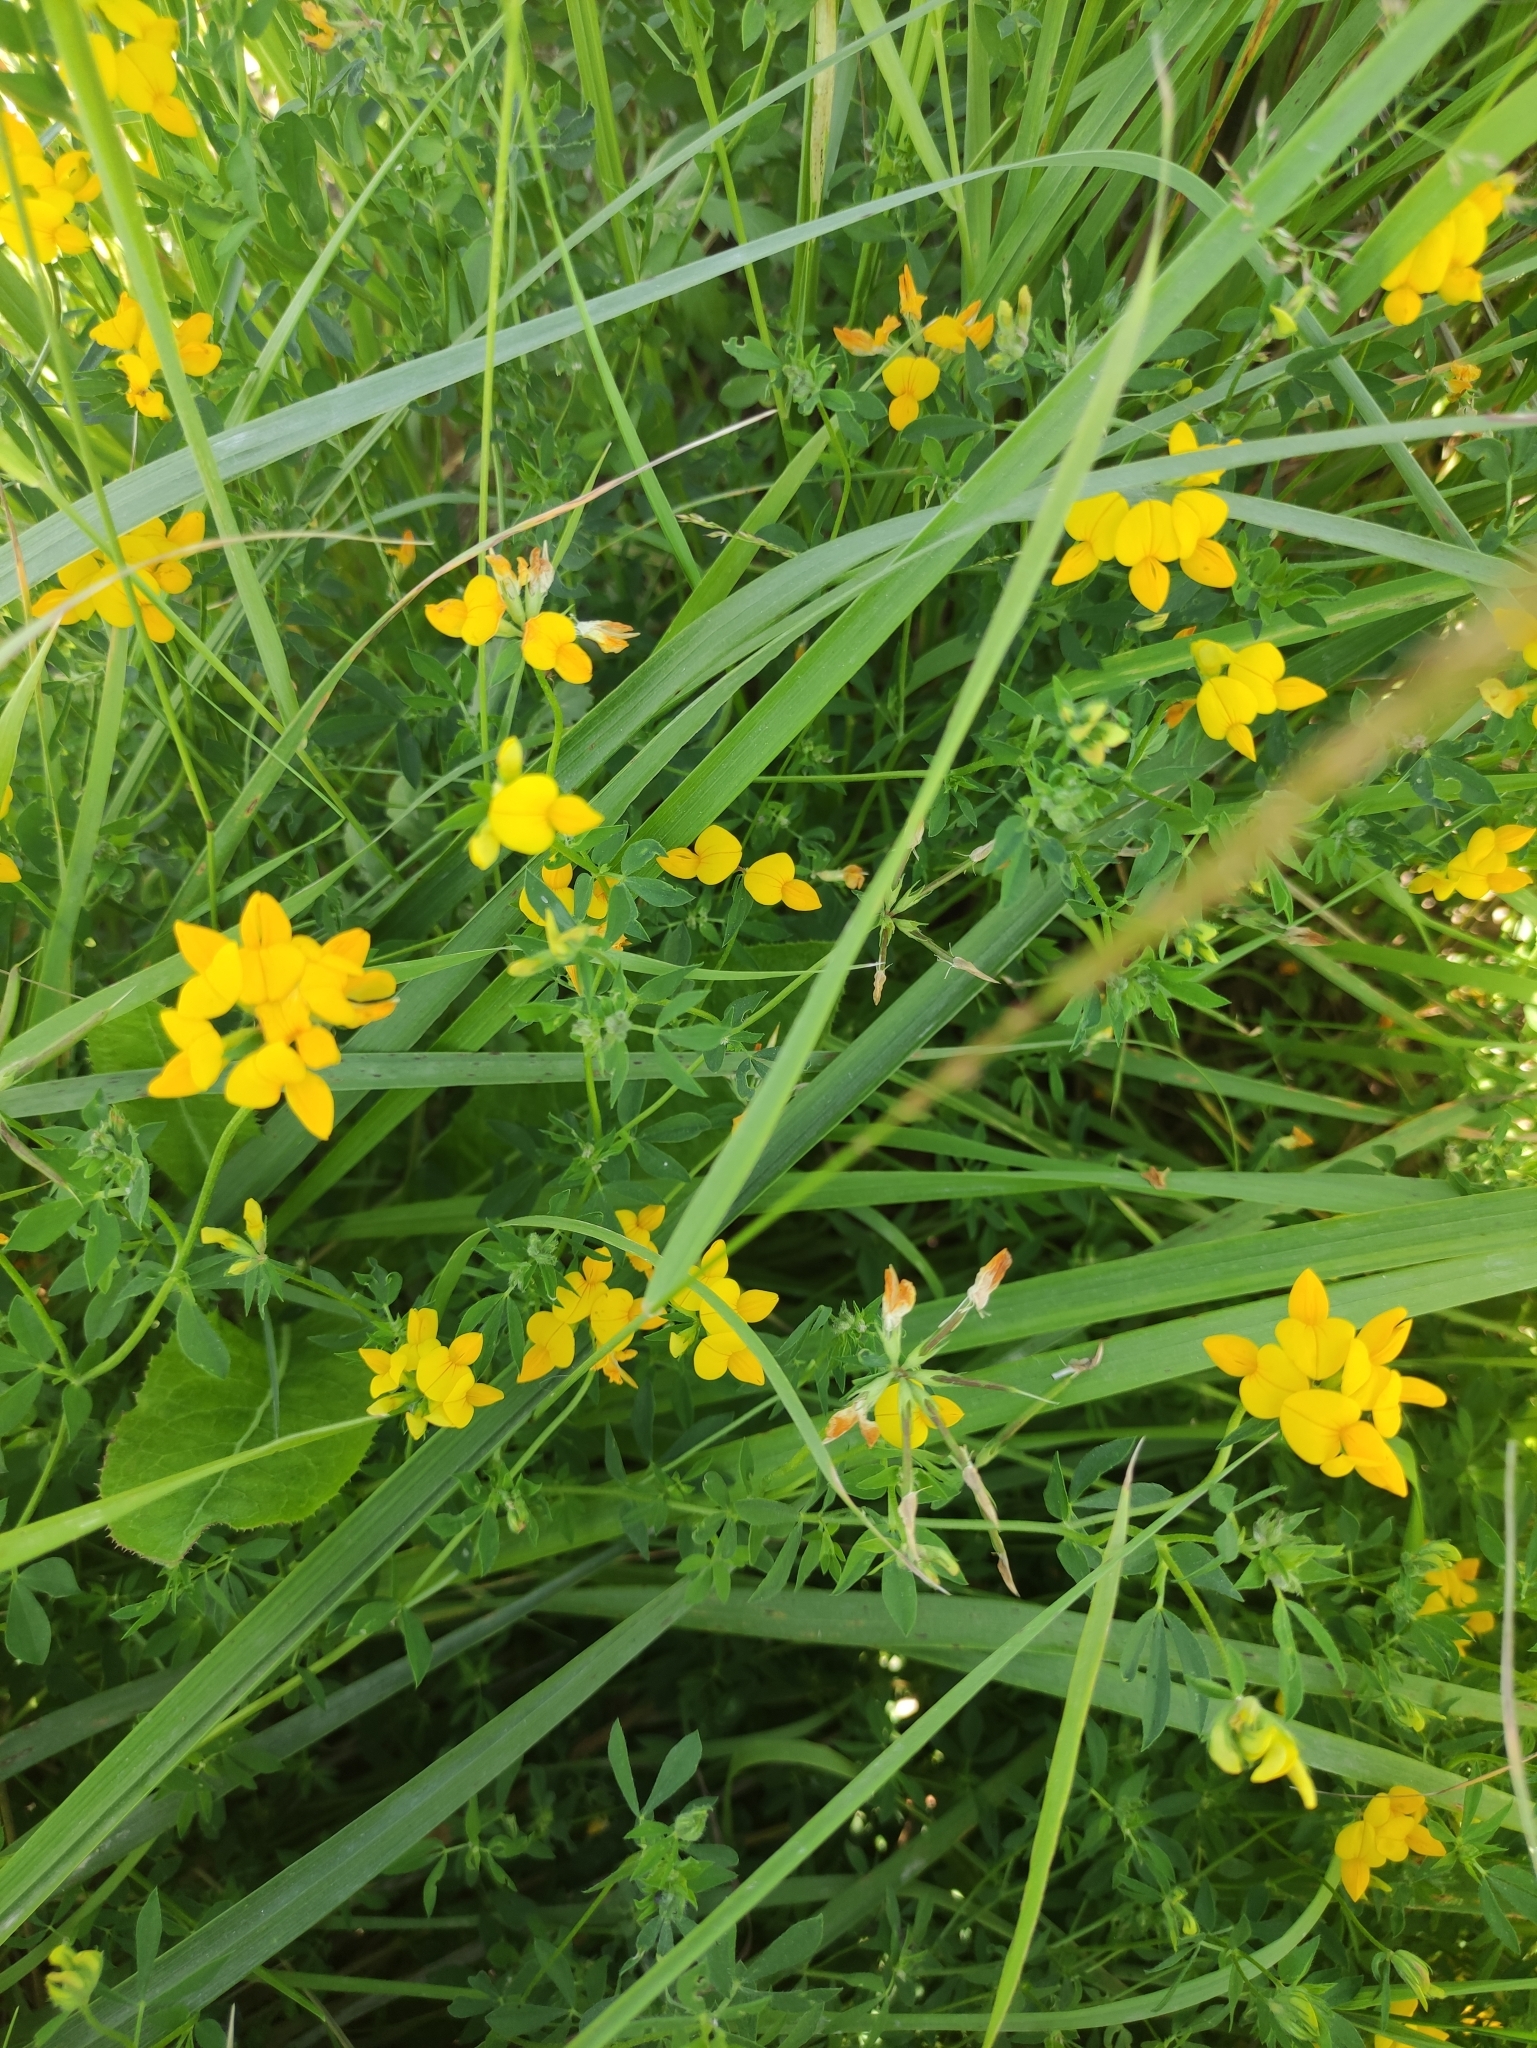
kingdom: Plantae
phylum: Tracheophyta
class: Magnoliopsida
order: Fabales
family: Fabaceae
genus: Lotus
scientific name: Lotus corniculatus
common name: Common bird's-foot-trefoil
